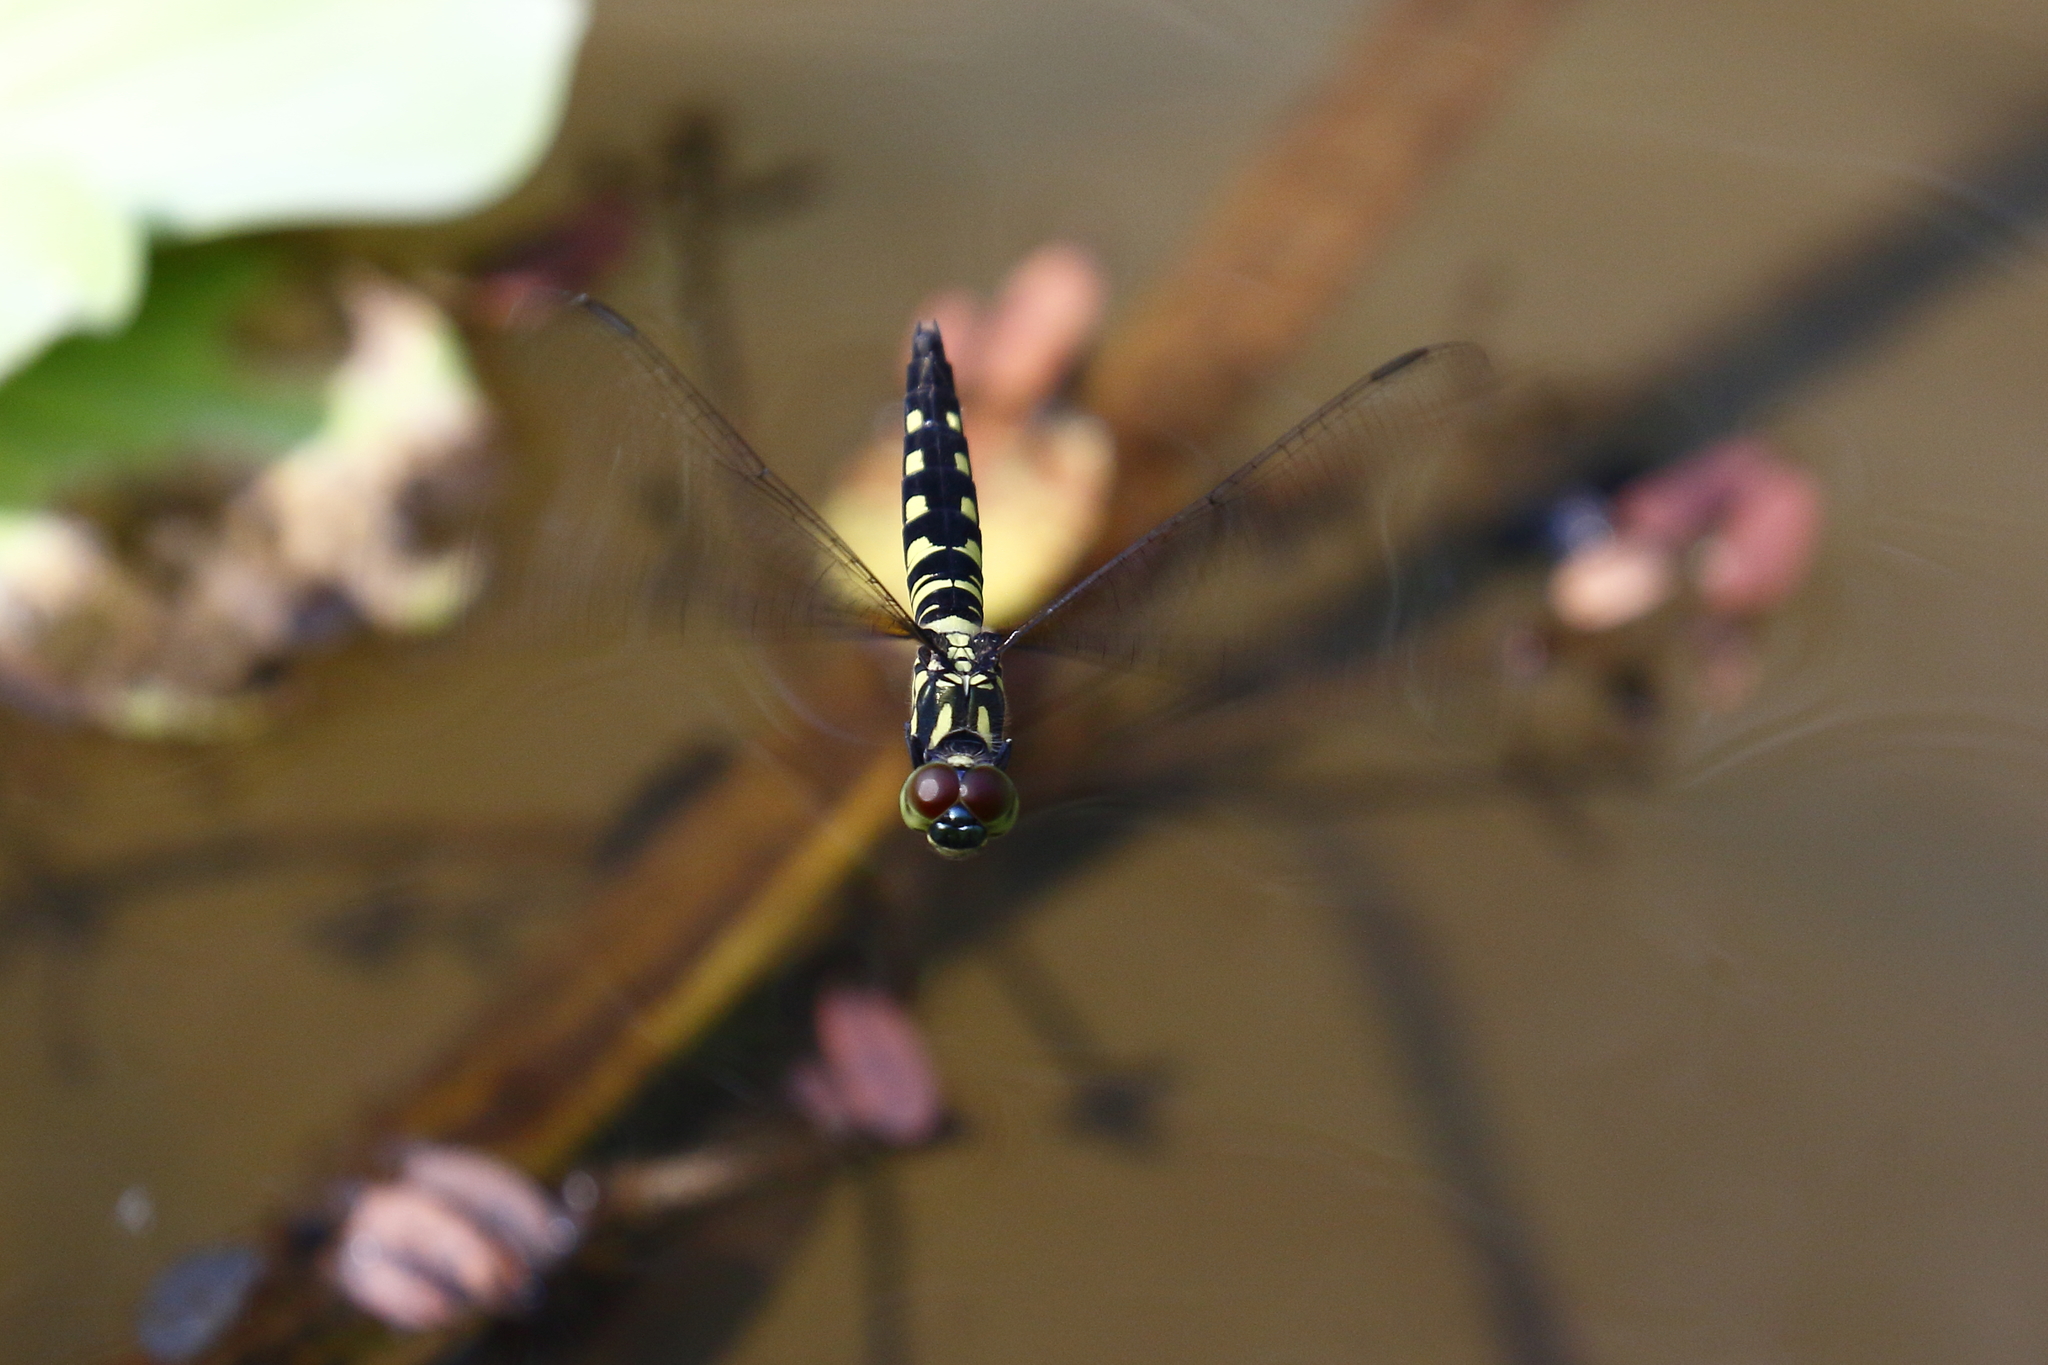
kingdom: Animalia
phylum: Arthropoda
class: Insecta
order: Odonata
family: Libellulidae
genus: Brachydiplax
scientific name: Brachydiplax chalybea
